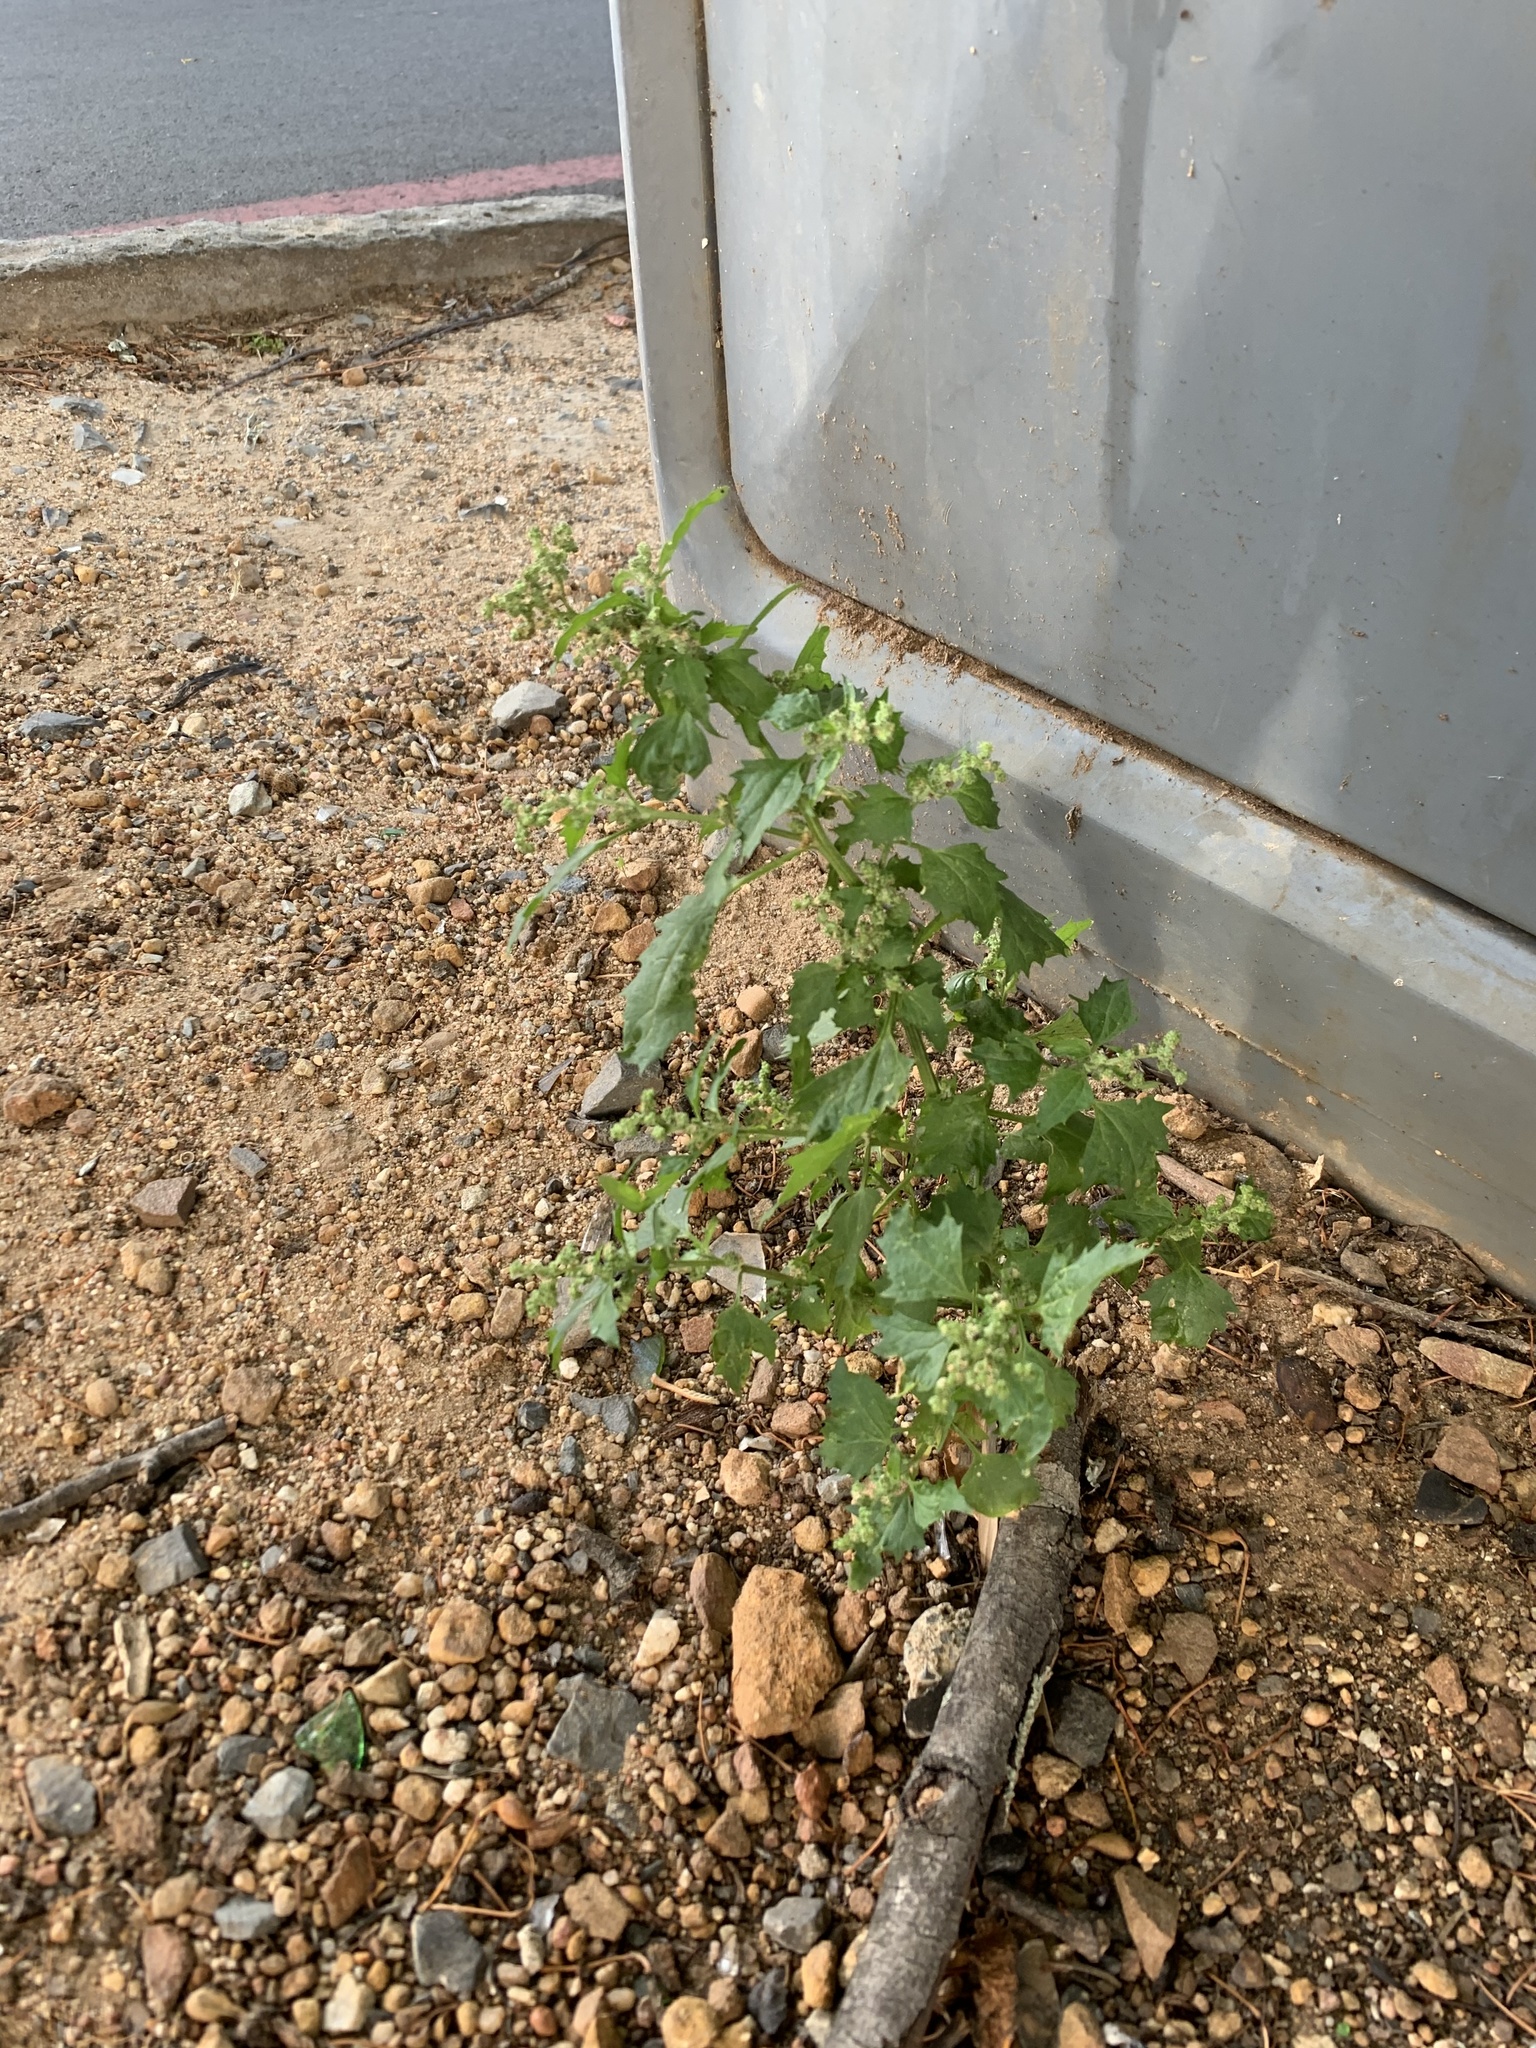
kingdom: Plantae
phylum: Tracheophyta
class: Magnoliopsida
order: Caryophyllales
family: Amaranthaceae
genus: Chenopodiastrum
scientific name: Chenopodiastrum murale
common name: Sowbane
